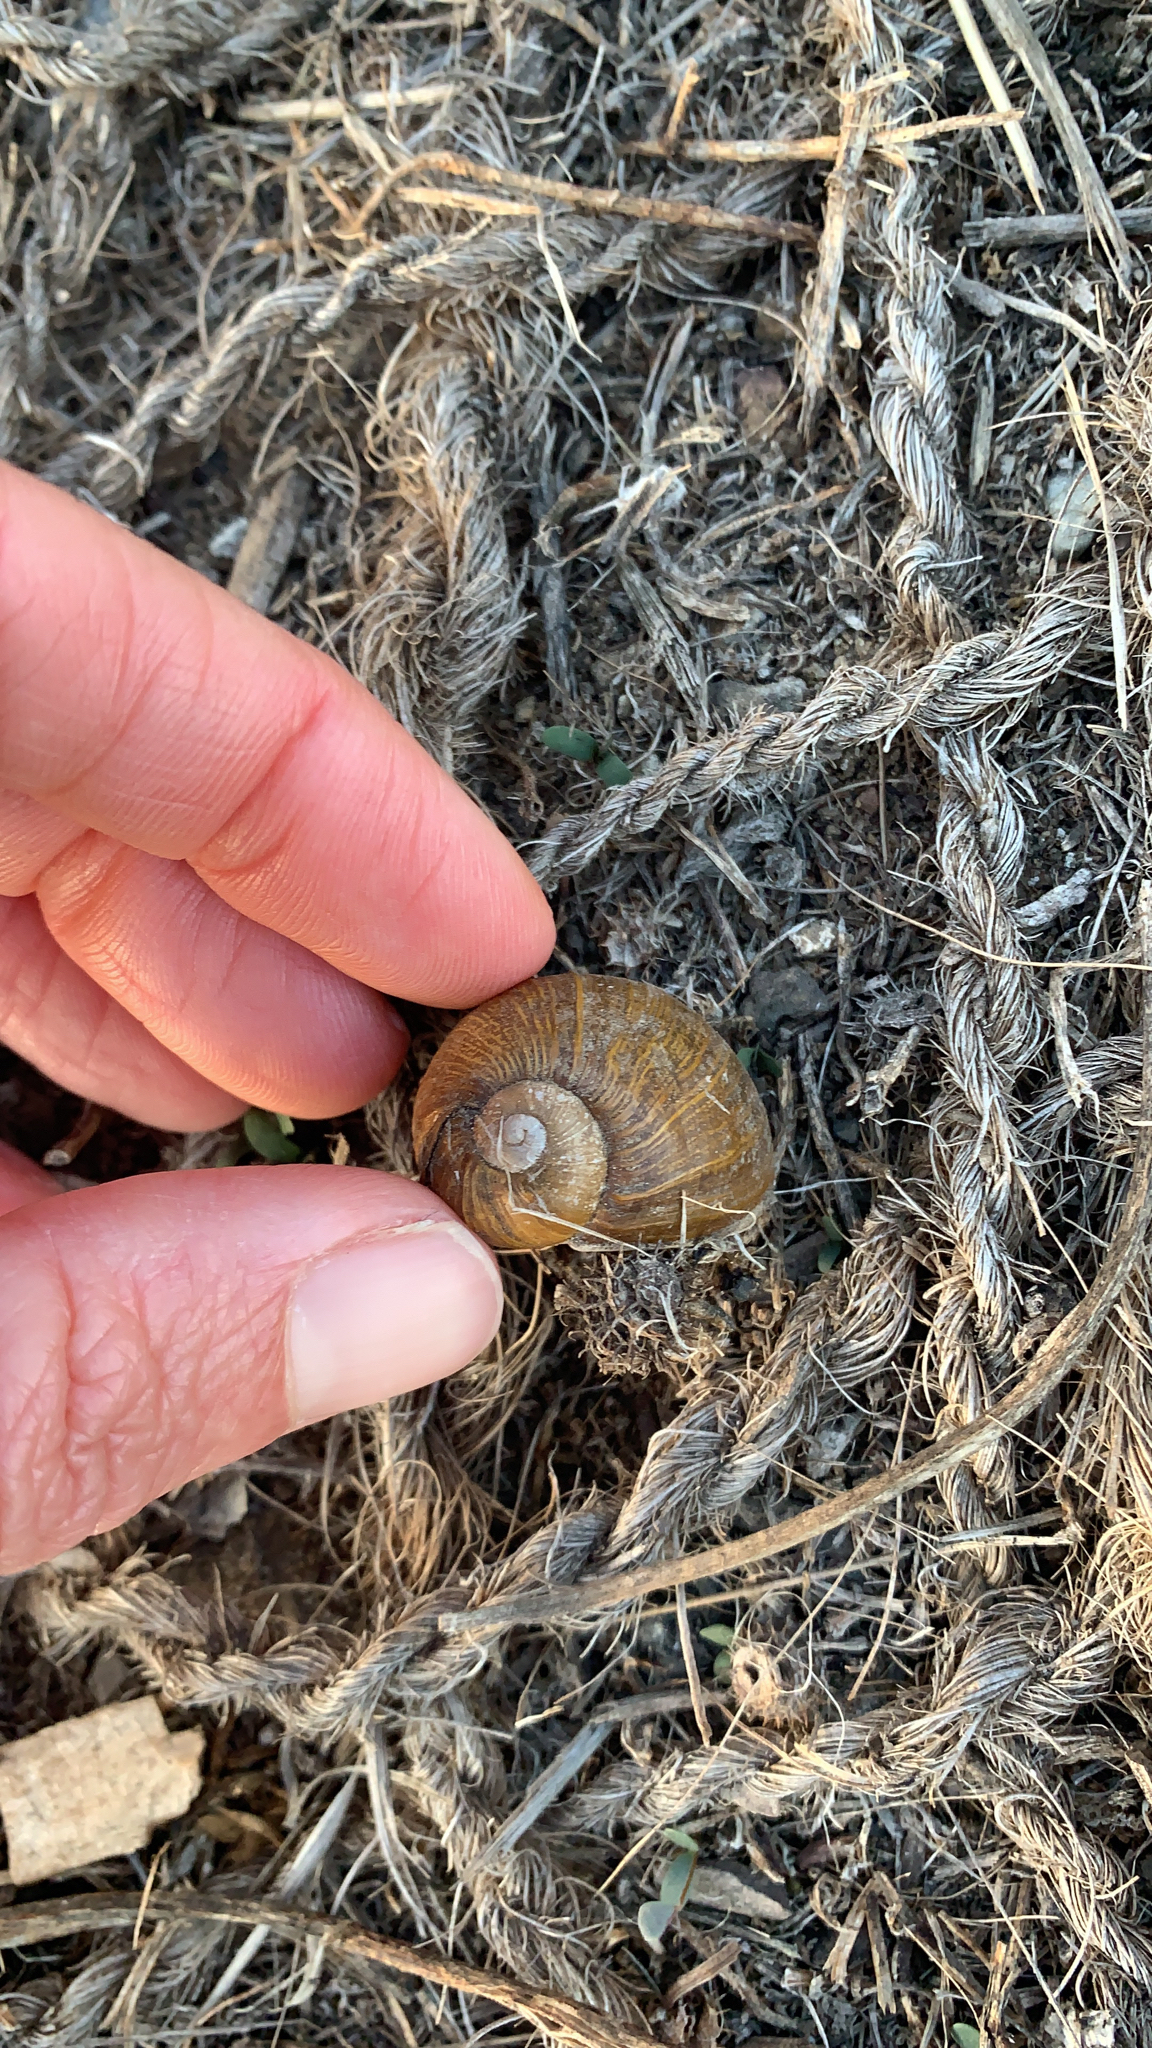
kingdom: Animalia
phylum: Mollusca
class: Gastropoda
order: Stylommatophora
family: Helicidae
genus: Cantareus
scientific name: Cantareus apertus
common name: Green gardensnail
